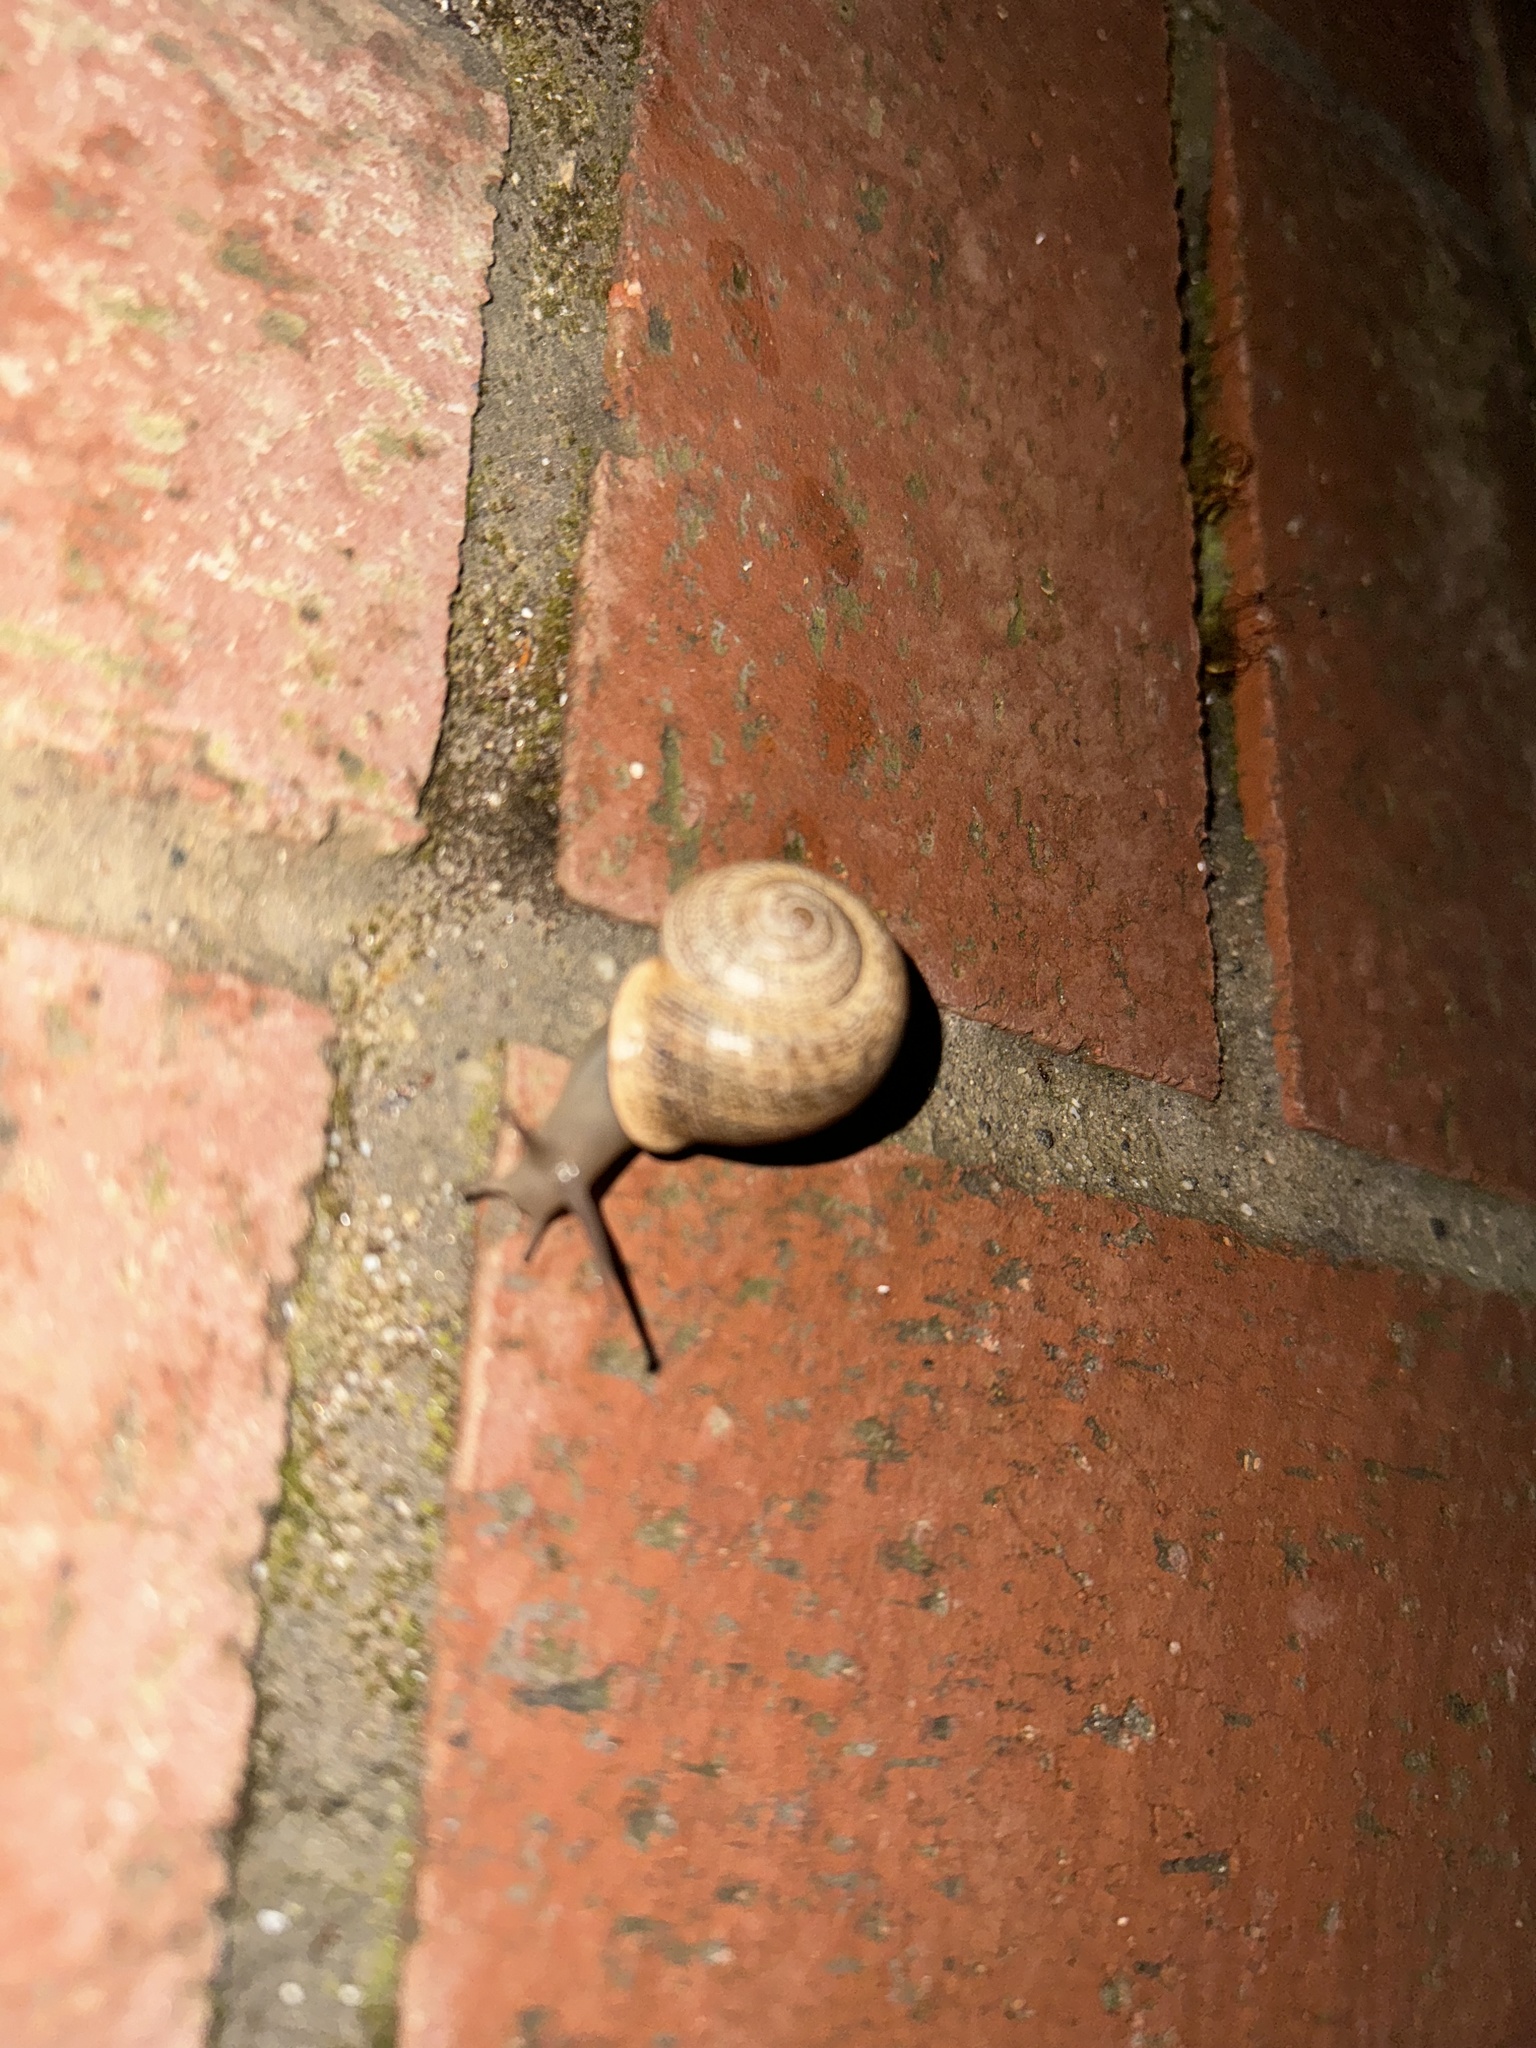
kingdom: Animalia
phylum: Mollusca
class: Gastropoda
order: Stylommatophora
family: Helicidae
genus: Otala
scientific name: Otala lactea
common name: Milk snail
